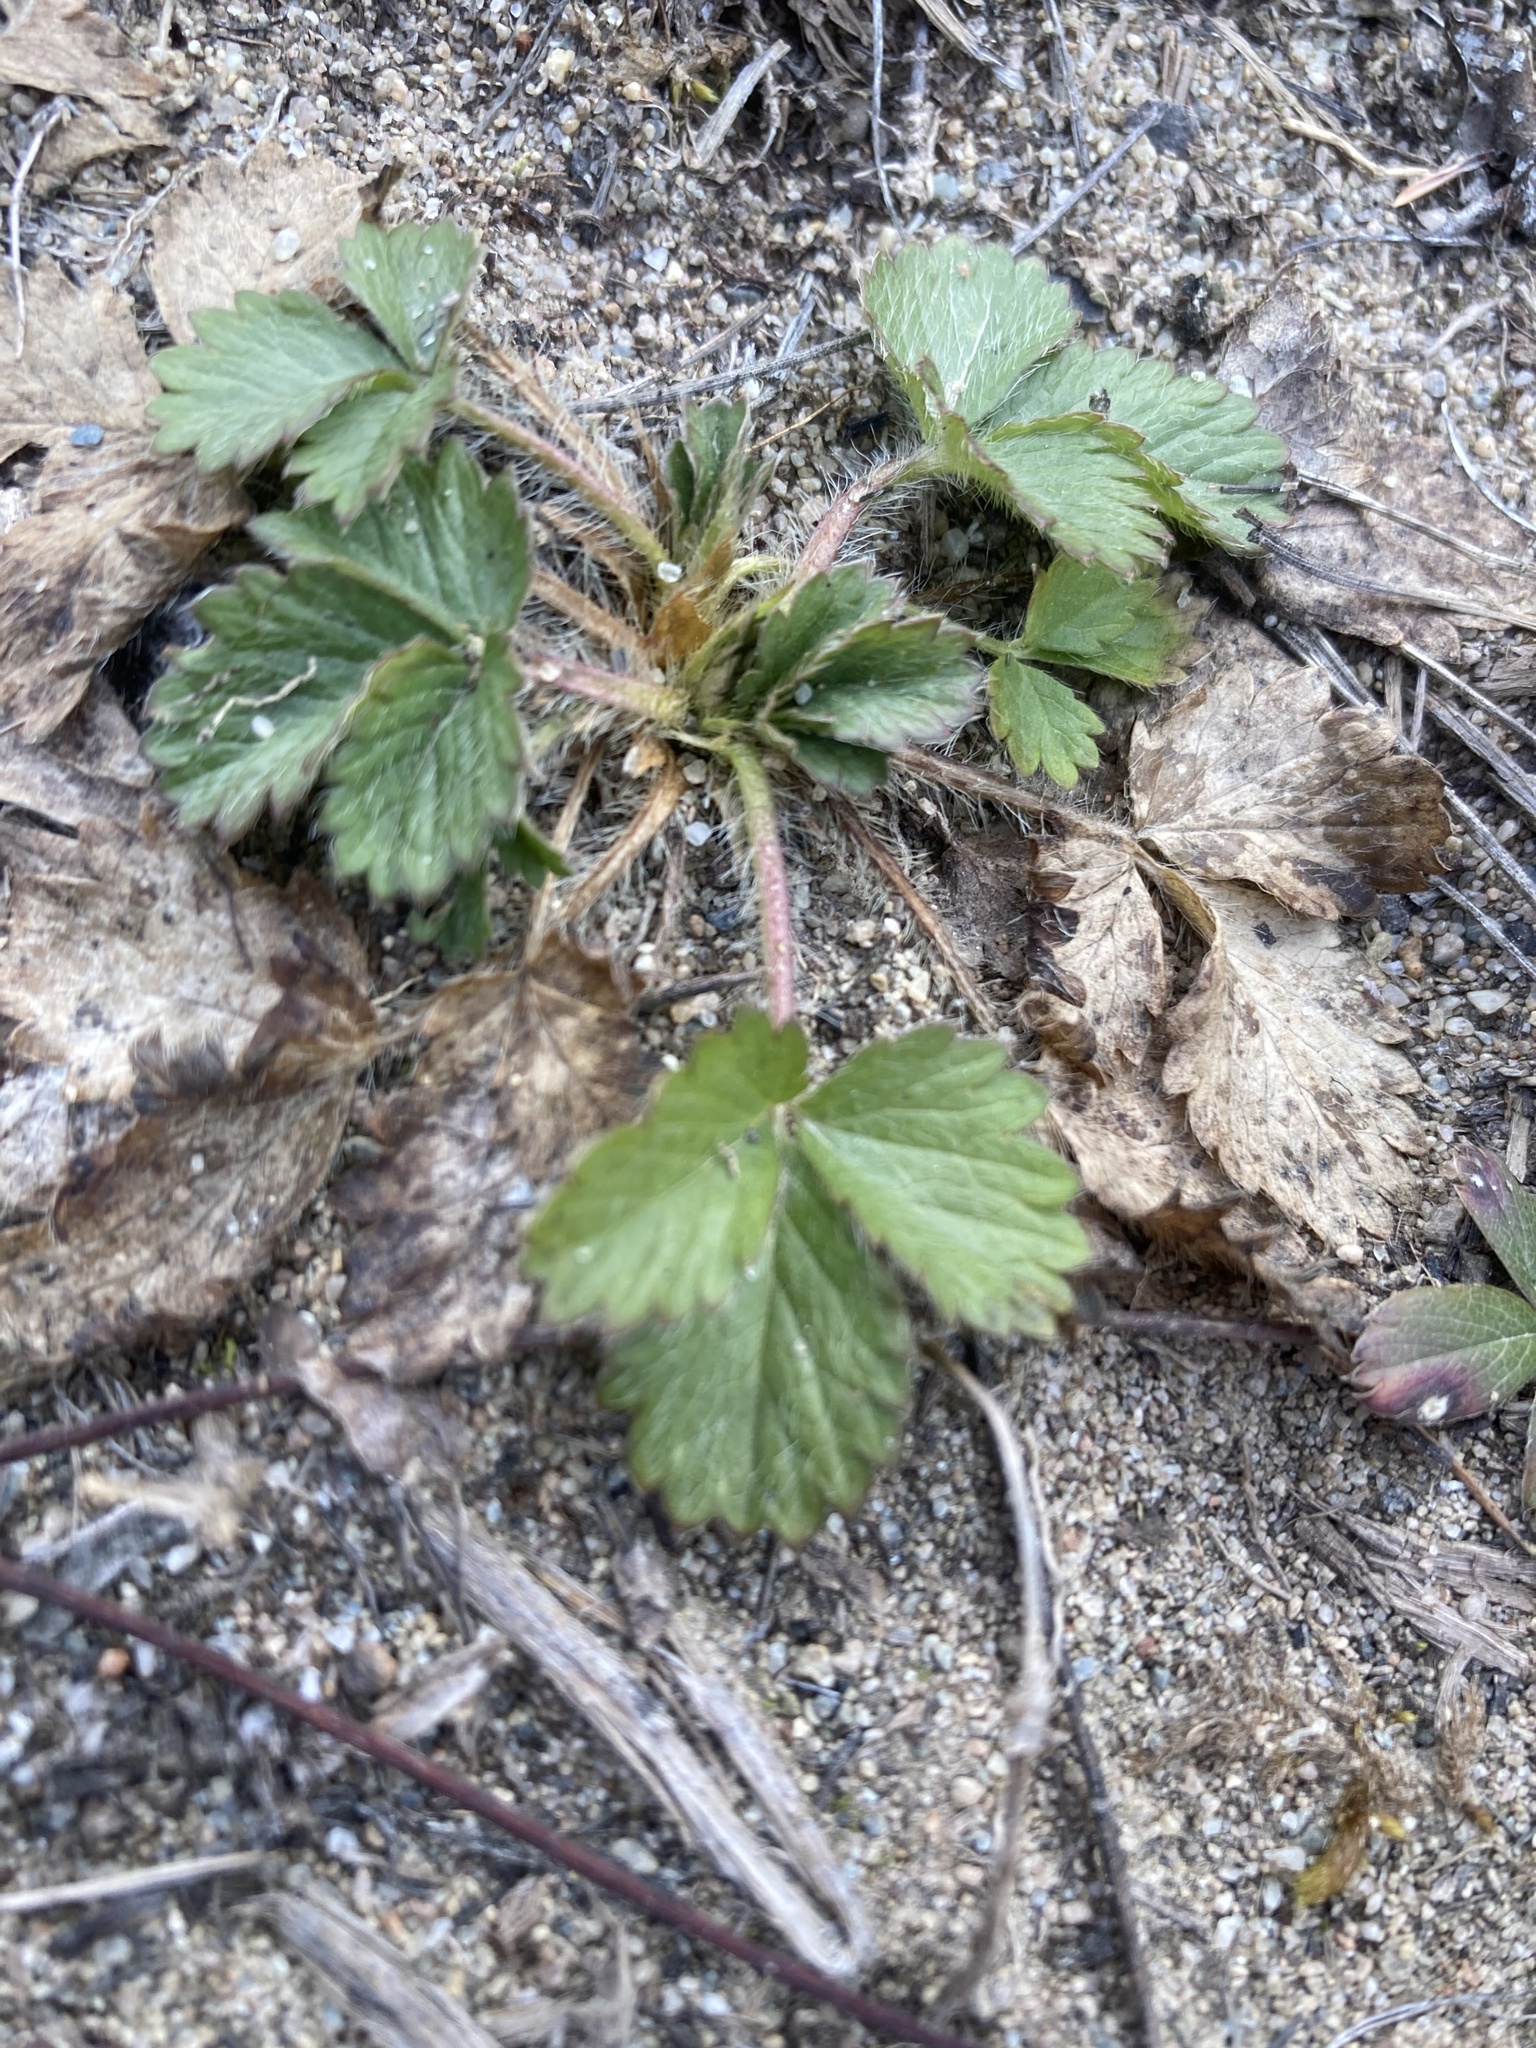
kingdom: Plantae
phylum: Tracheophyta
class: Magnoliopsida
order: Rosales
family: Rosaceae
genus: Potentilla
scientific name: Potentilla norvegica
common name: Ternate-leaved cinquefoil
